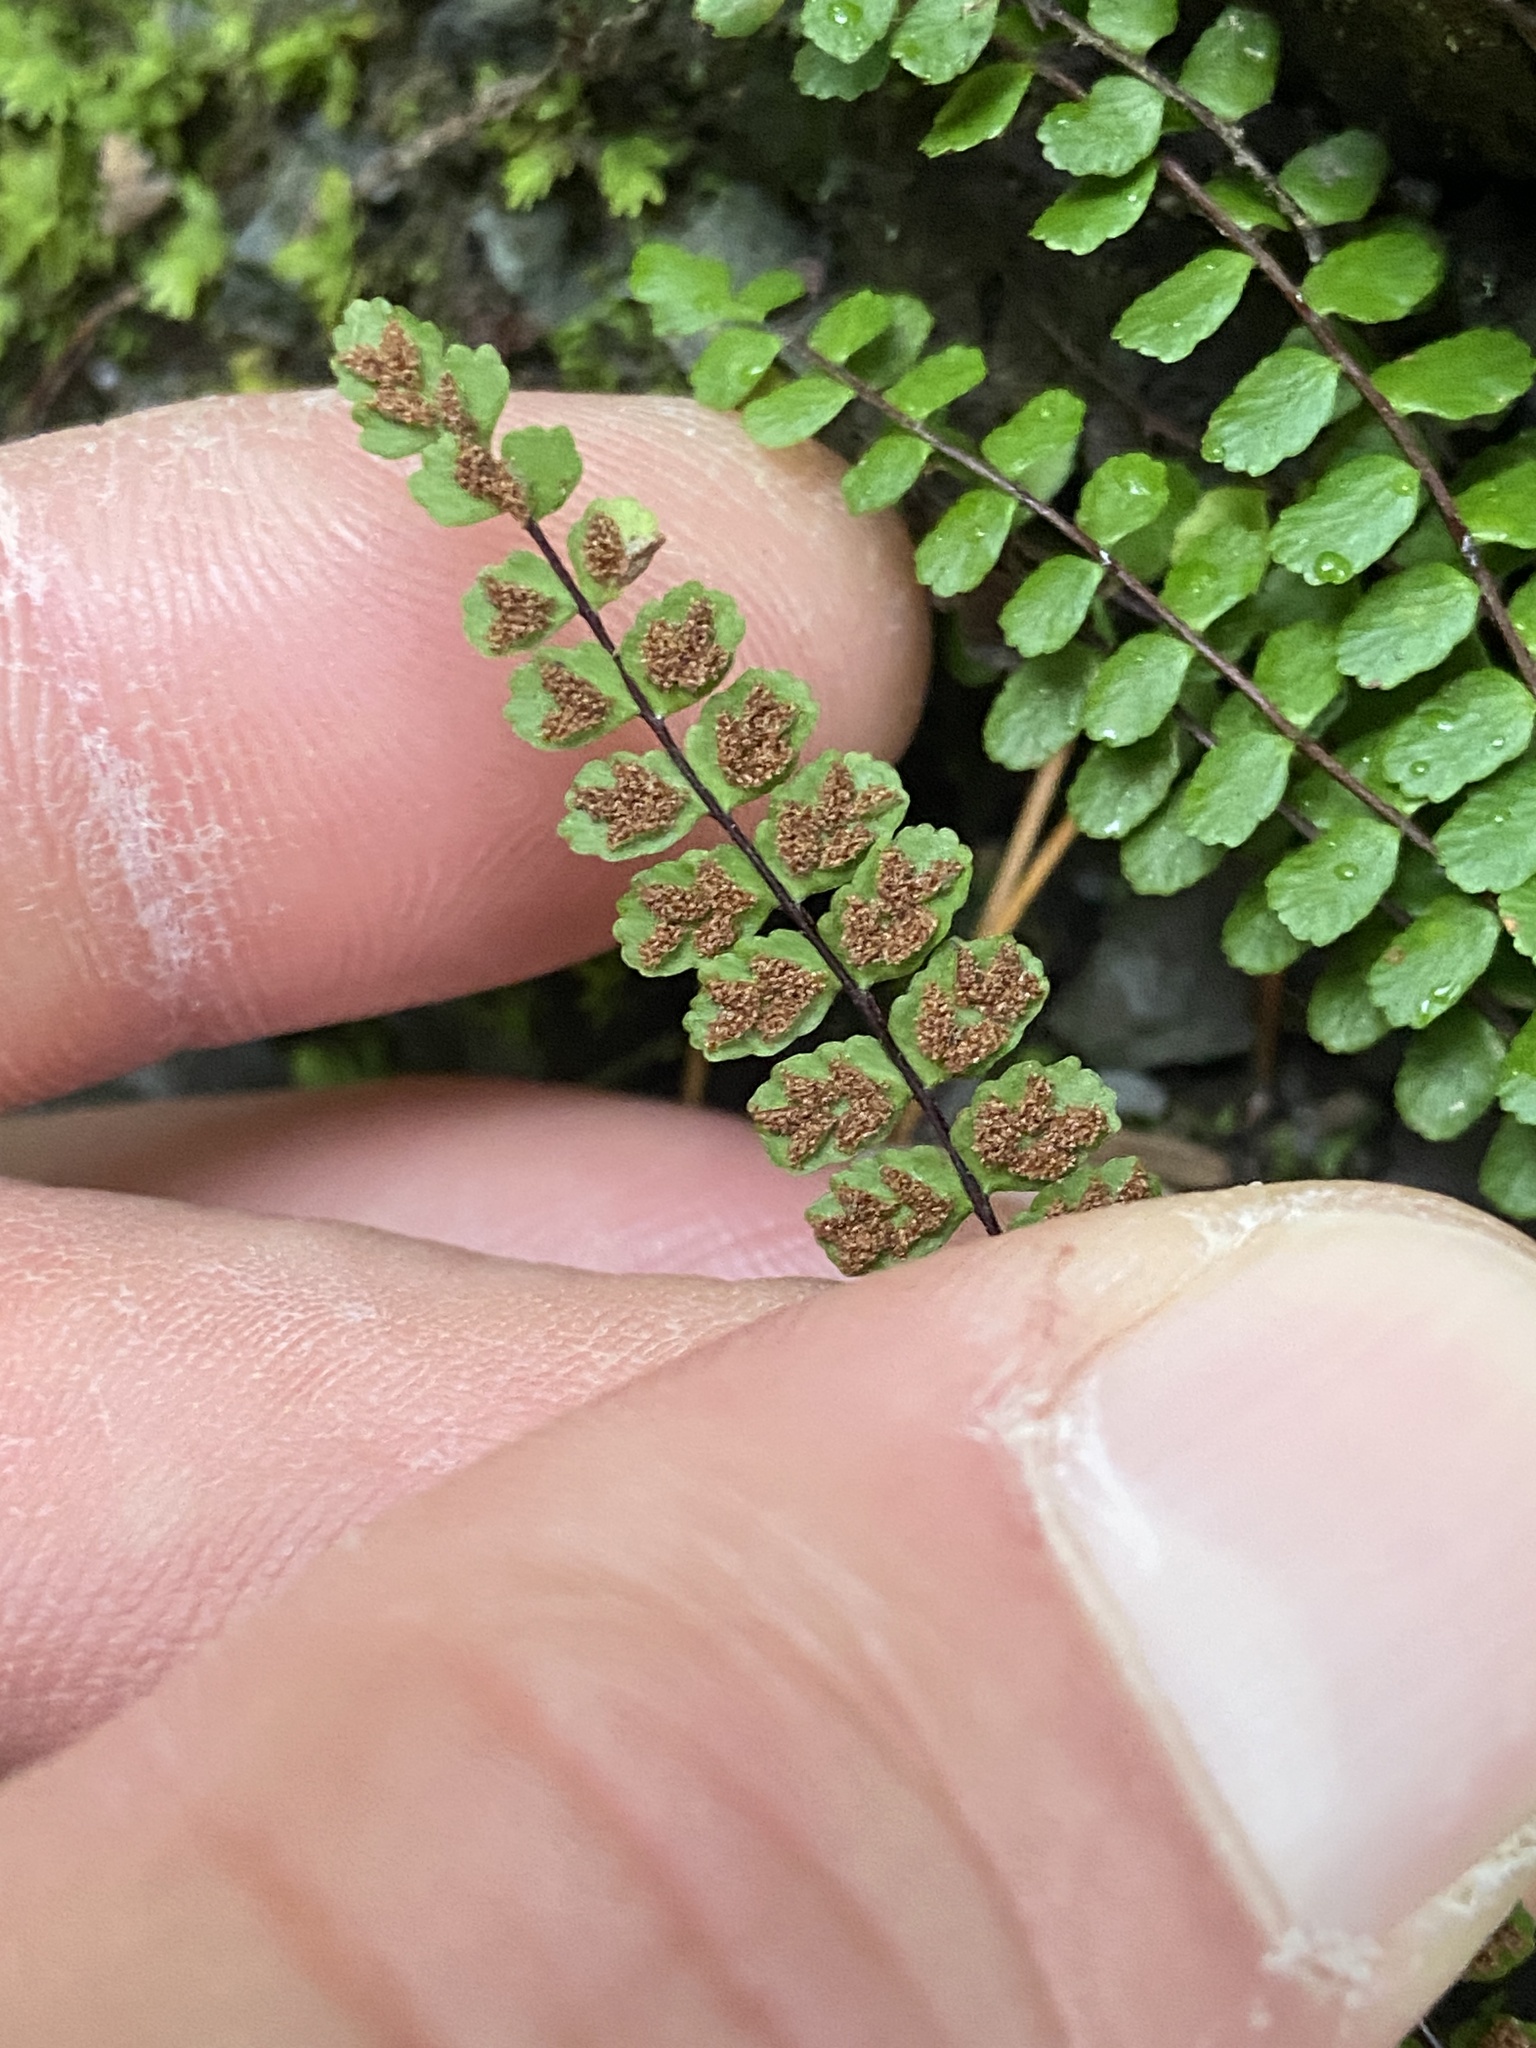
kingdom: Plantae
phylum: Tracheophyta
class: Polypodiopsida
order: Polypodiales
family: Aspleniaceae
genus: Asplenium
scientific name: Asplenium trichomanes
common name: Maidenhair spleenwort
